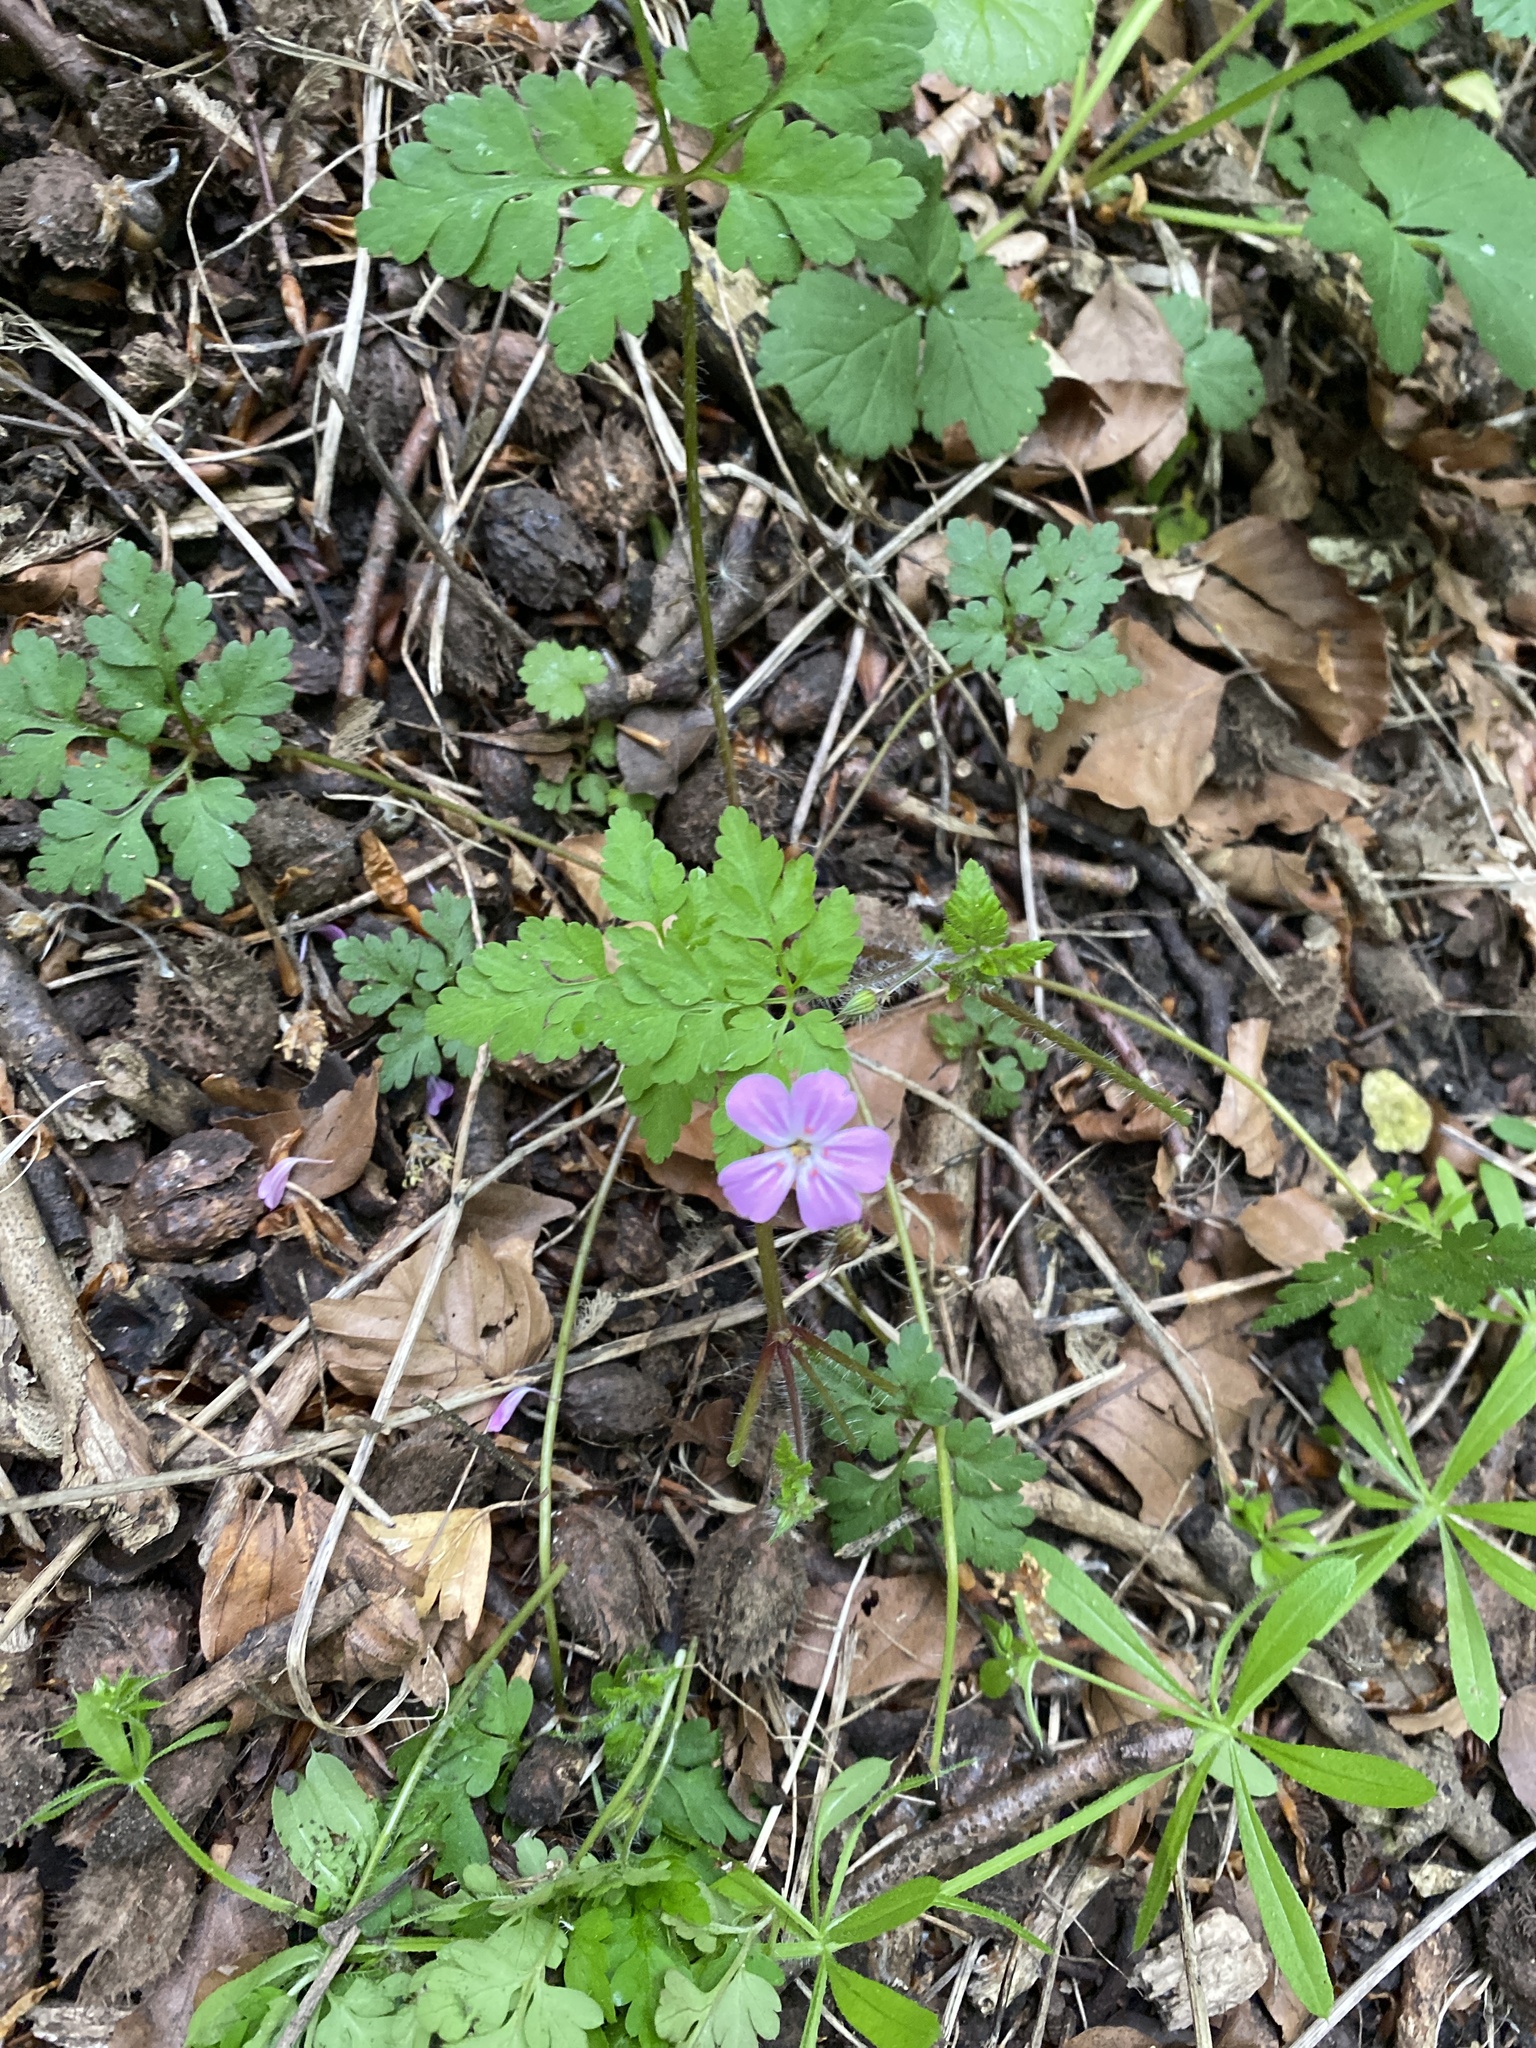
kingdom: Plantae
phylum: Tracheophyta
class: Magnoliopsida
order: Geraniales
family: Geraniaceae
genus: Geranium
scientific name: Geranium robertianum
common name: Herb-robert
